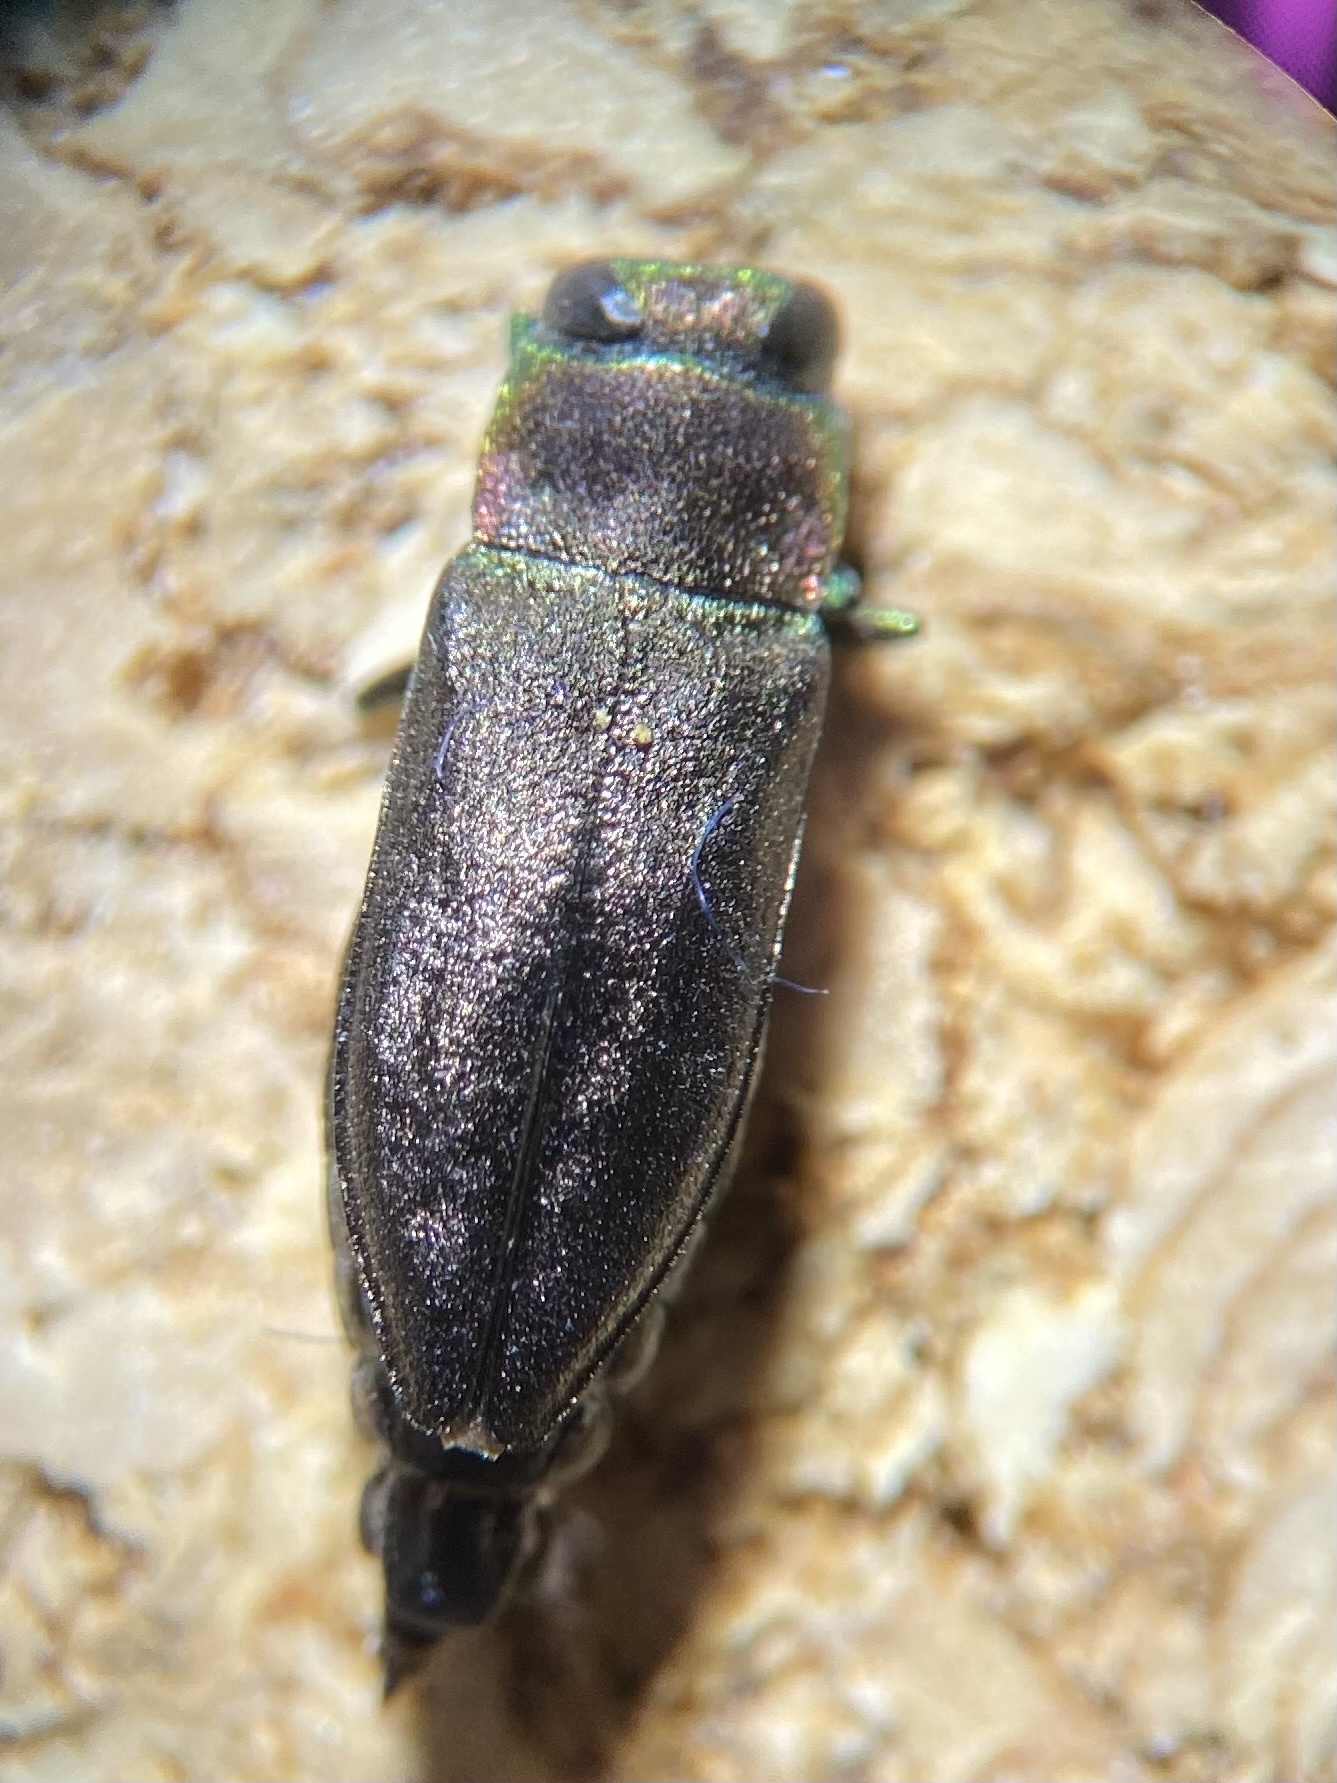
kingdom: Animalia
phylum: Arthropoda
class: Insecta
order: Coleoptera
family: Buprestidae
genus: Anthaxia
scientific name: Anthaxia viridifrons
